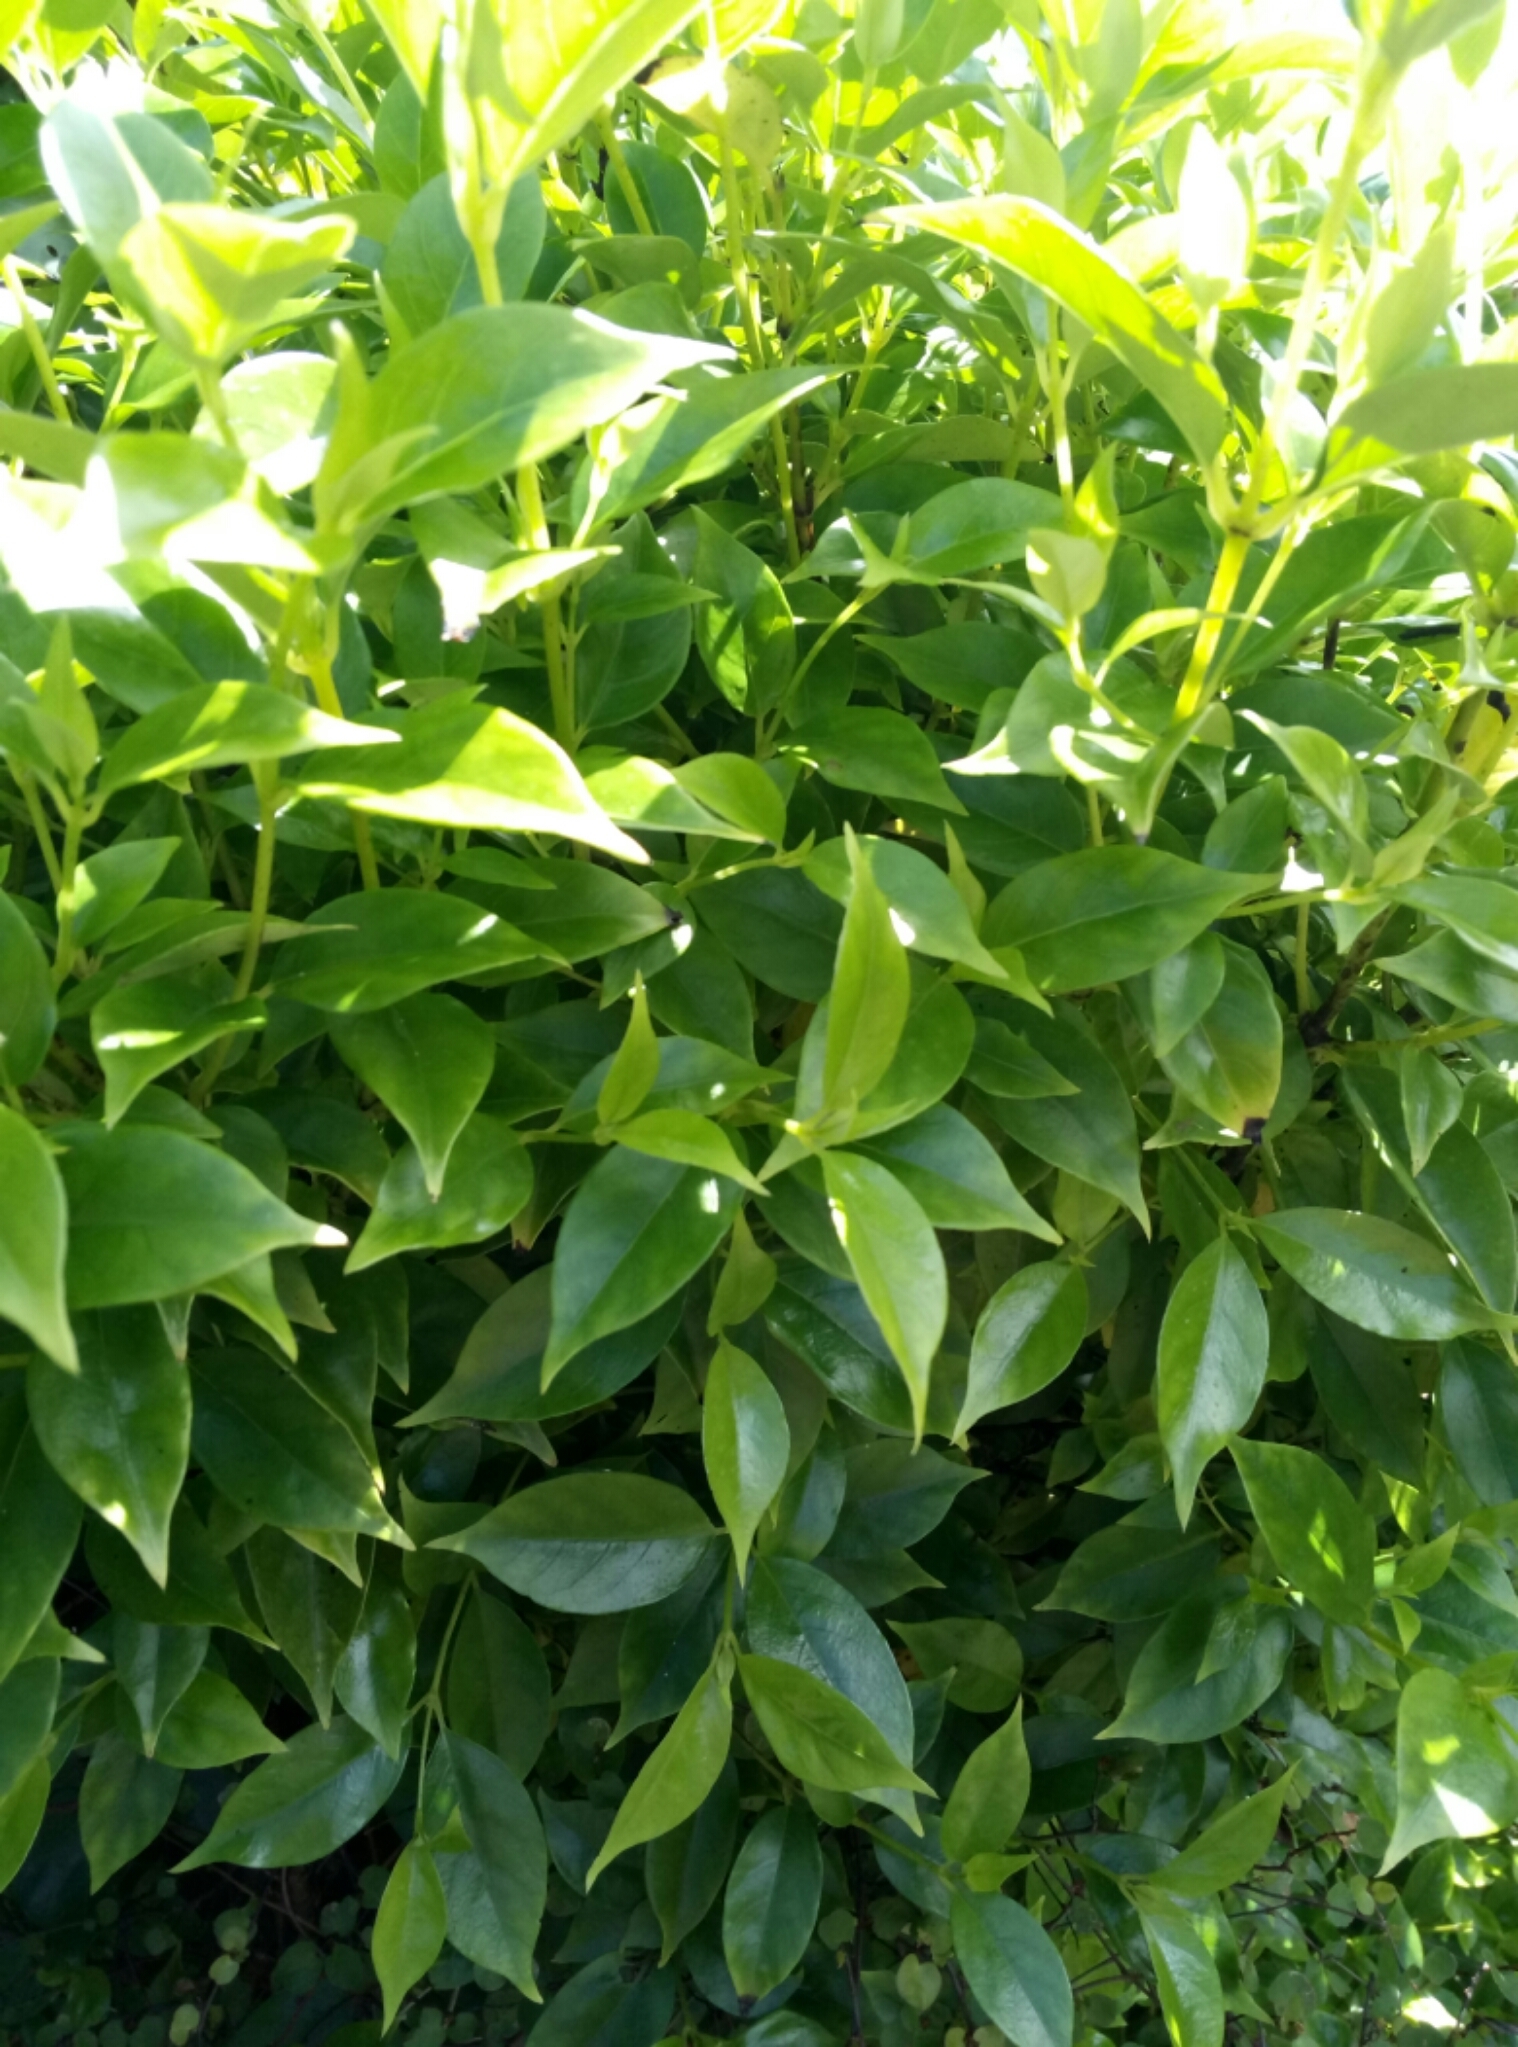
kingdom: Plantae
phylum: Tracheophyta
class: Magnoliopsida
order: Gentianales
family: Loganiaceae
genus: Geniostoma
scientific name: Geniostoma ligustrifolium
